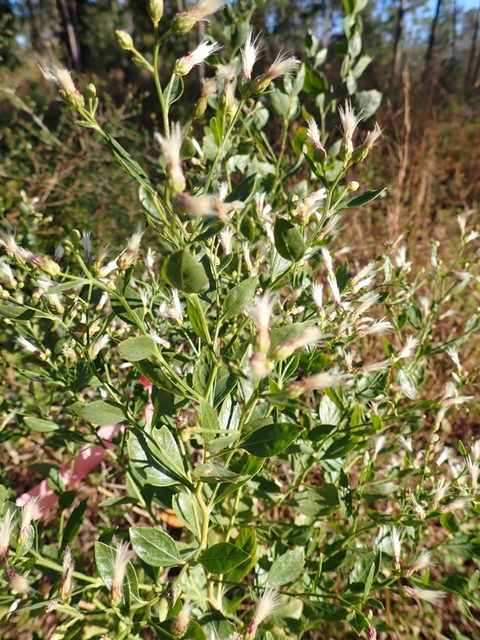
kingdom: Plantae
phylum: Tracheophyta
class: Magnoliopsida
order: Asterales
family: Asteraceae
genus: Baccharis
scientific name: Baccharis halimifolia
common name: Eastern baccharis
